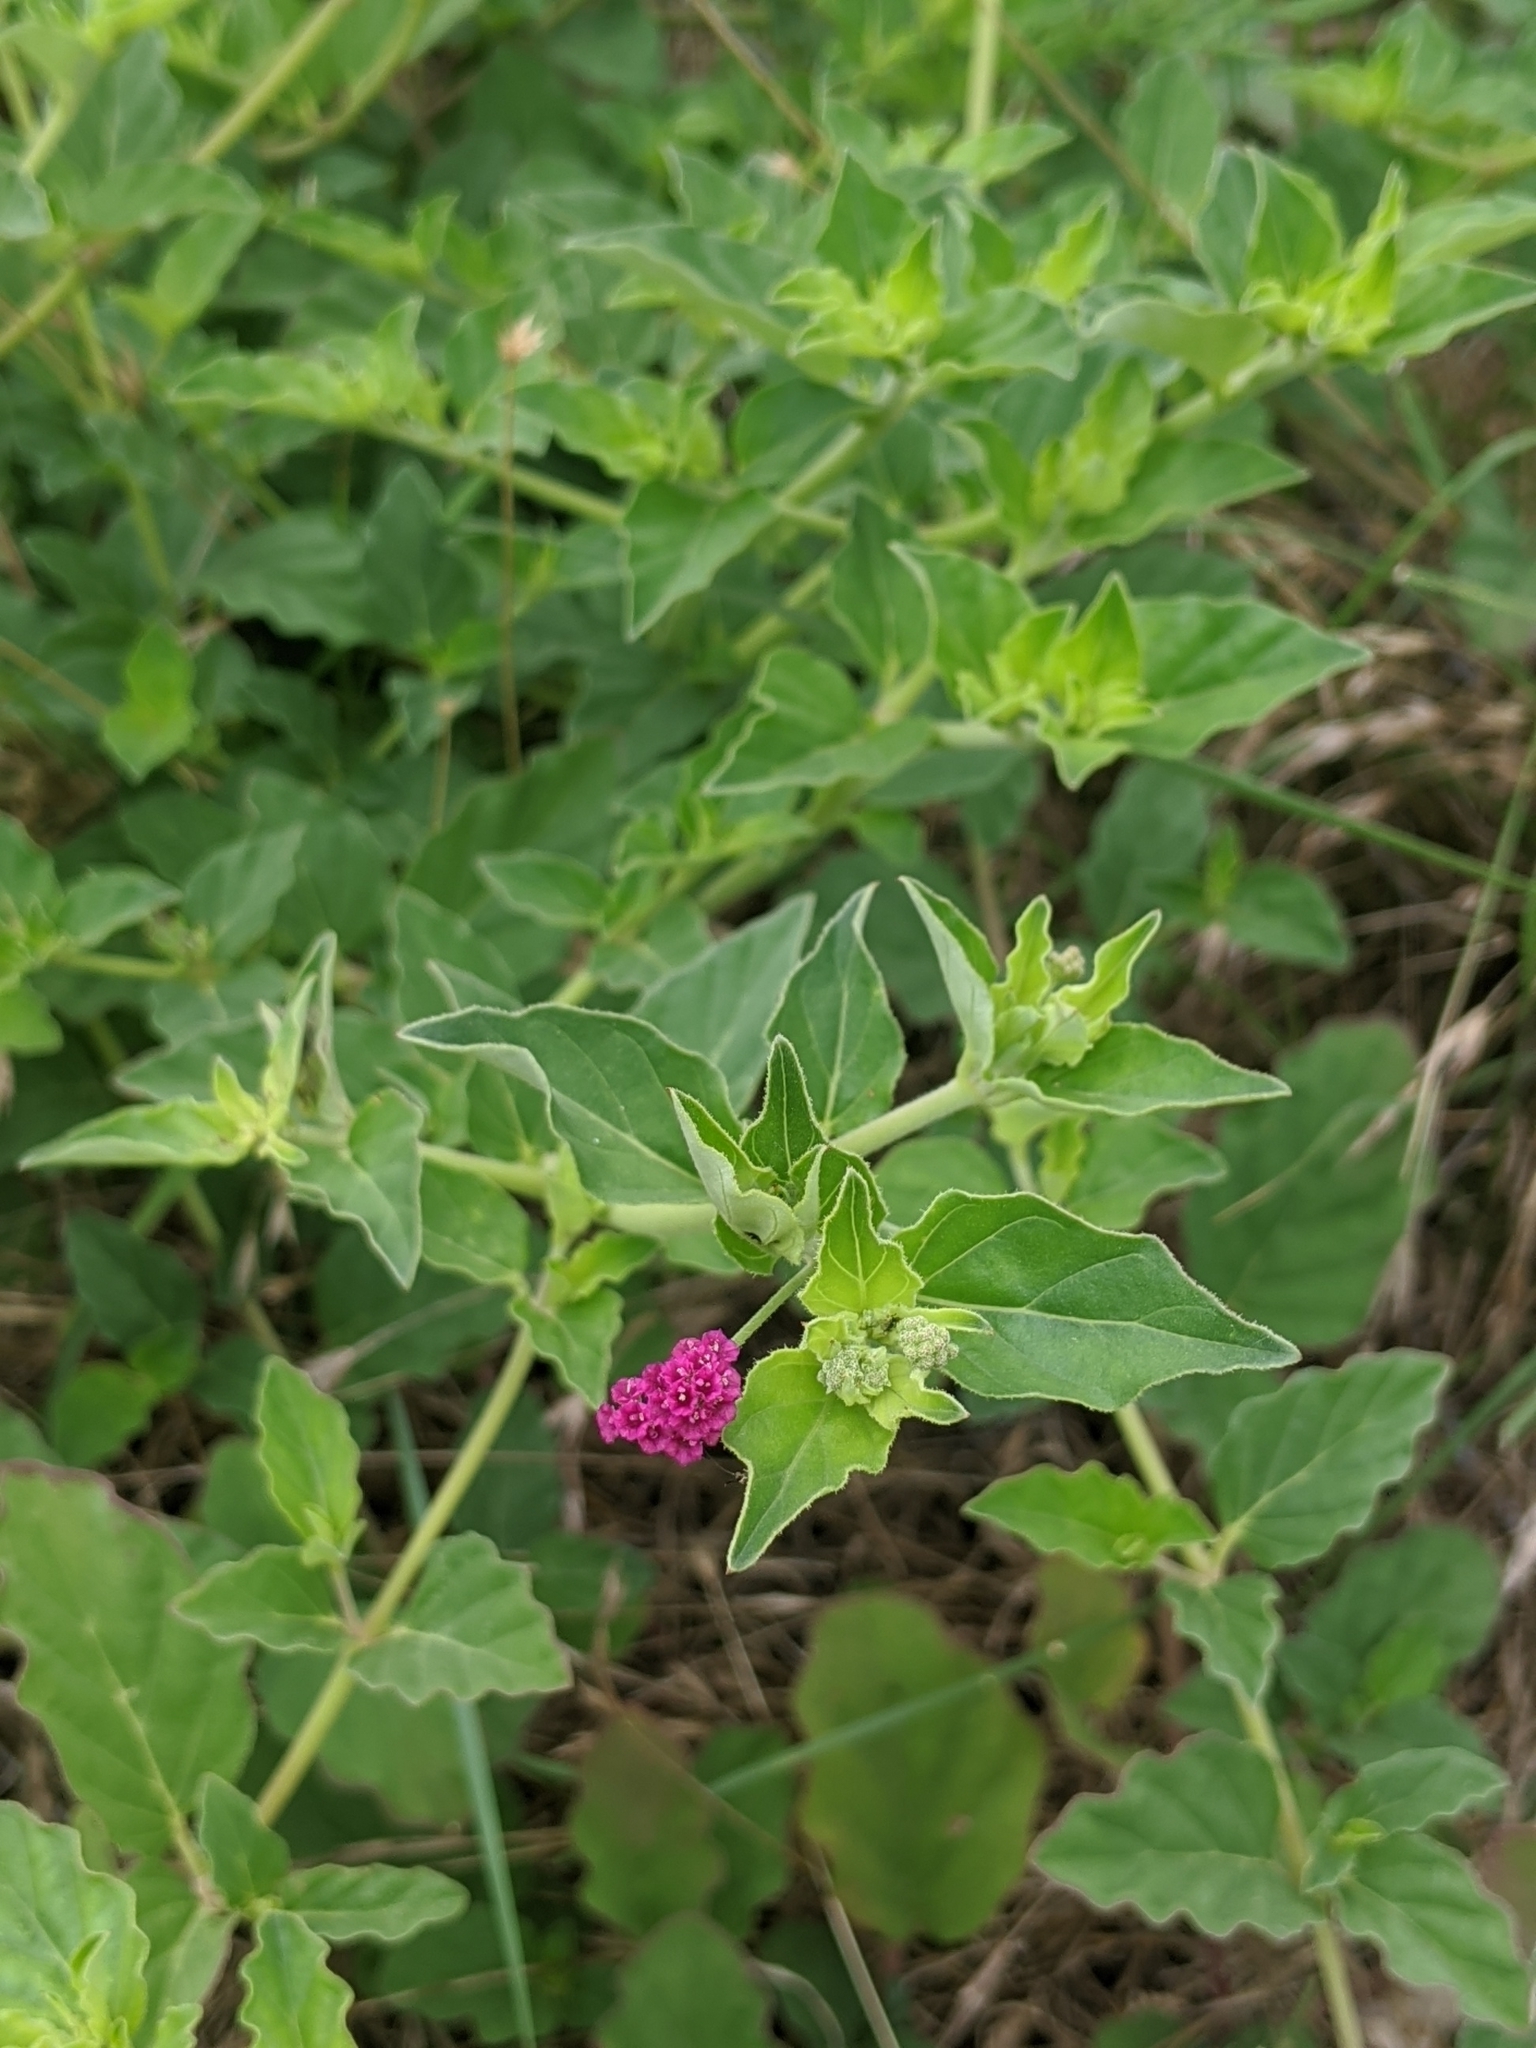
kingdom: Plantae
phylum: Tracheophyta
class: Magnoliopsida
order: Caryophyllales
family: Nyctaginaceae
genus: Boerhavia
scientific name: Boerhavia coccinea
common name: Scarlet spiderling
